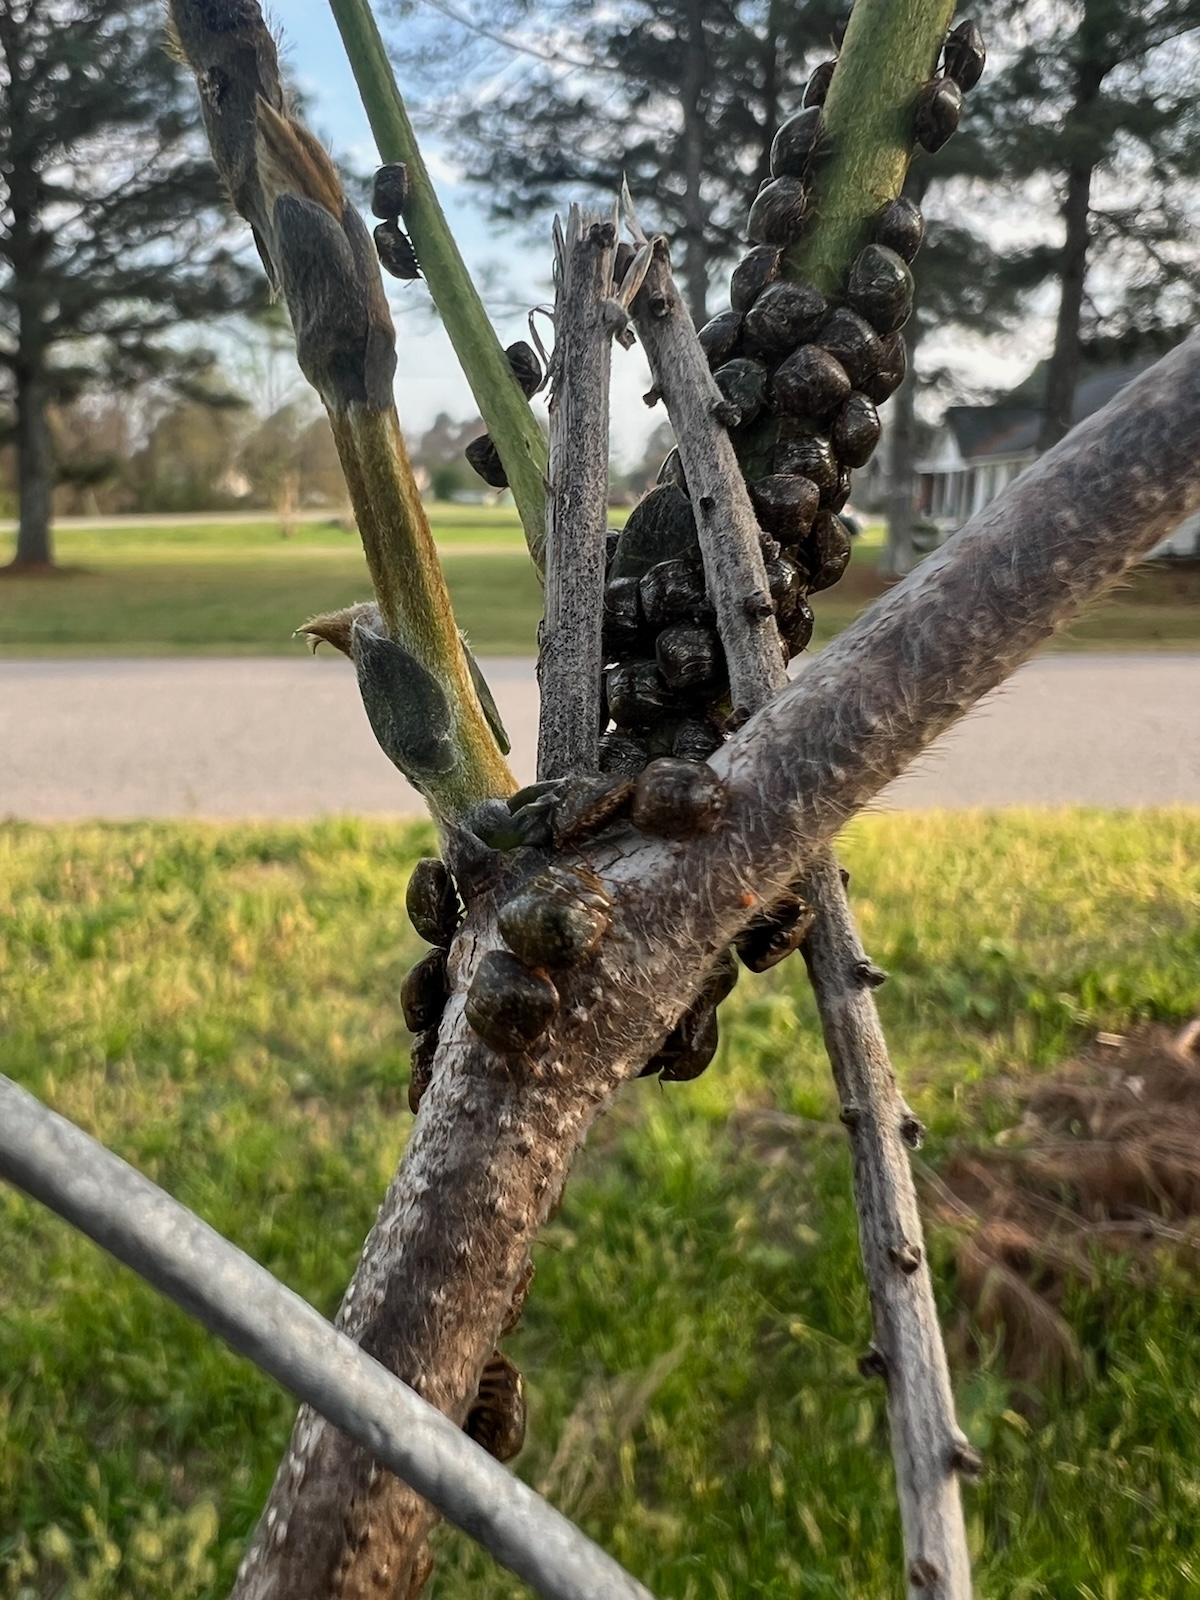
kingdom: Animalia
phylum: Arthropoda
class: Insecta
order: Hemiptera
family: Plataspidae
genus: Megacopta
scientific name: Megacopta cribraria
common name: Bean plataspid
